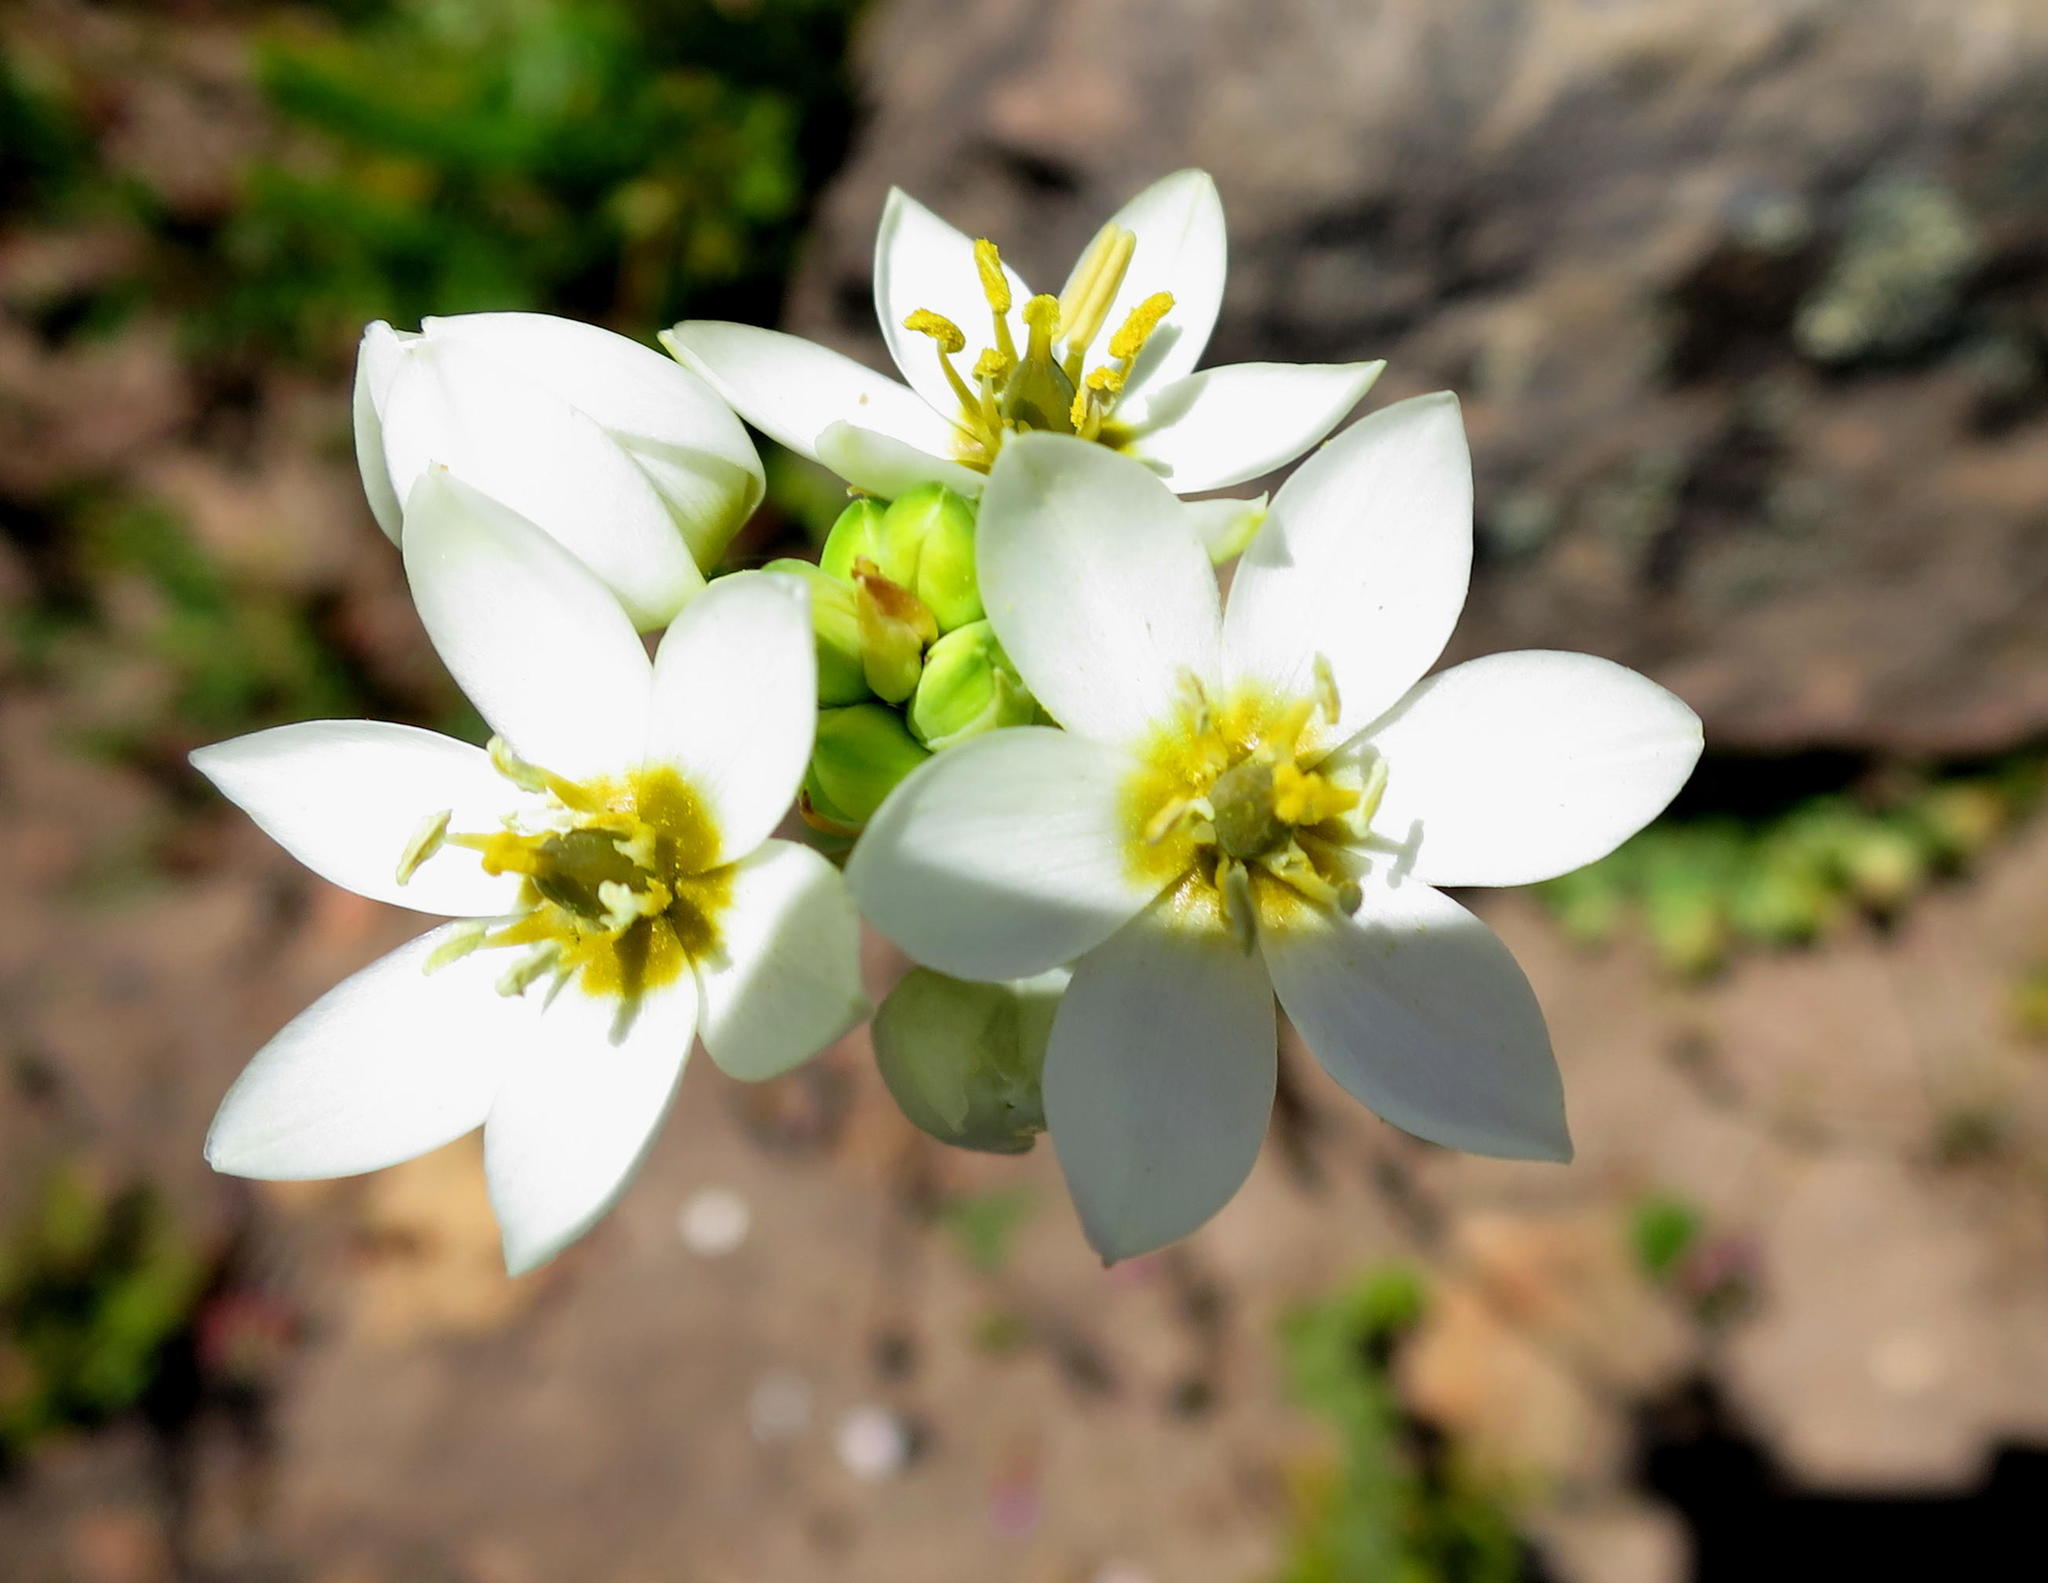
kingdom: Plantae
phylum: Tracheophyta
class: Liliopsida
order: Asparagales
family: Asparagaceae
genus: Ornithogalum
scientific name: Ornithogalum dubium
